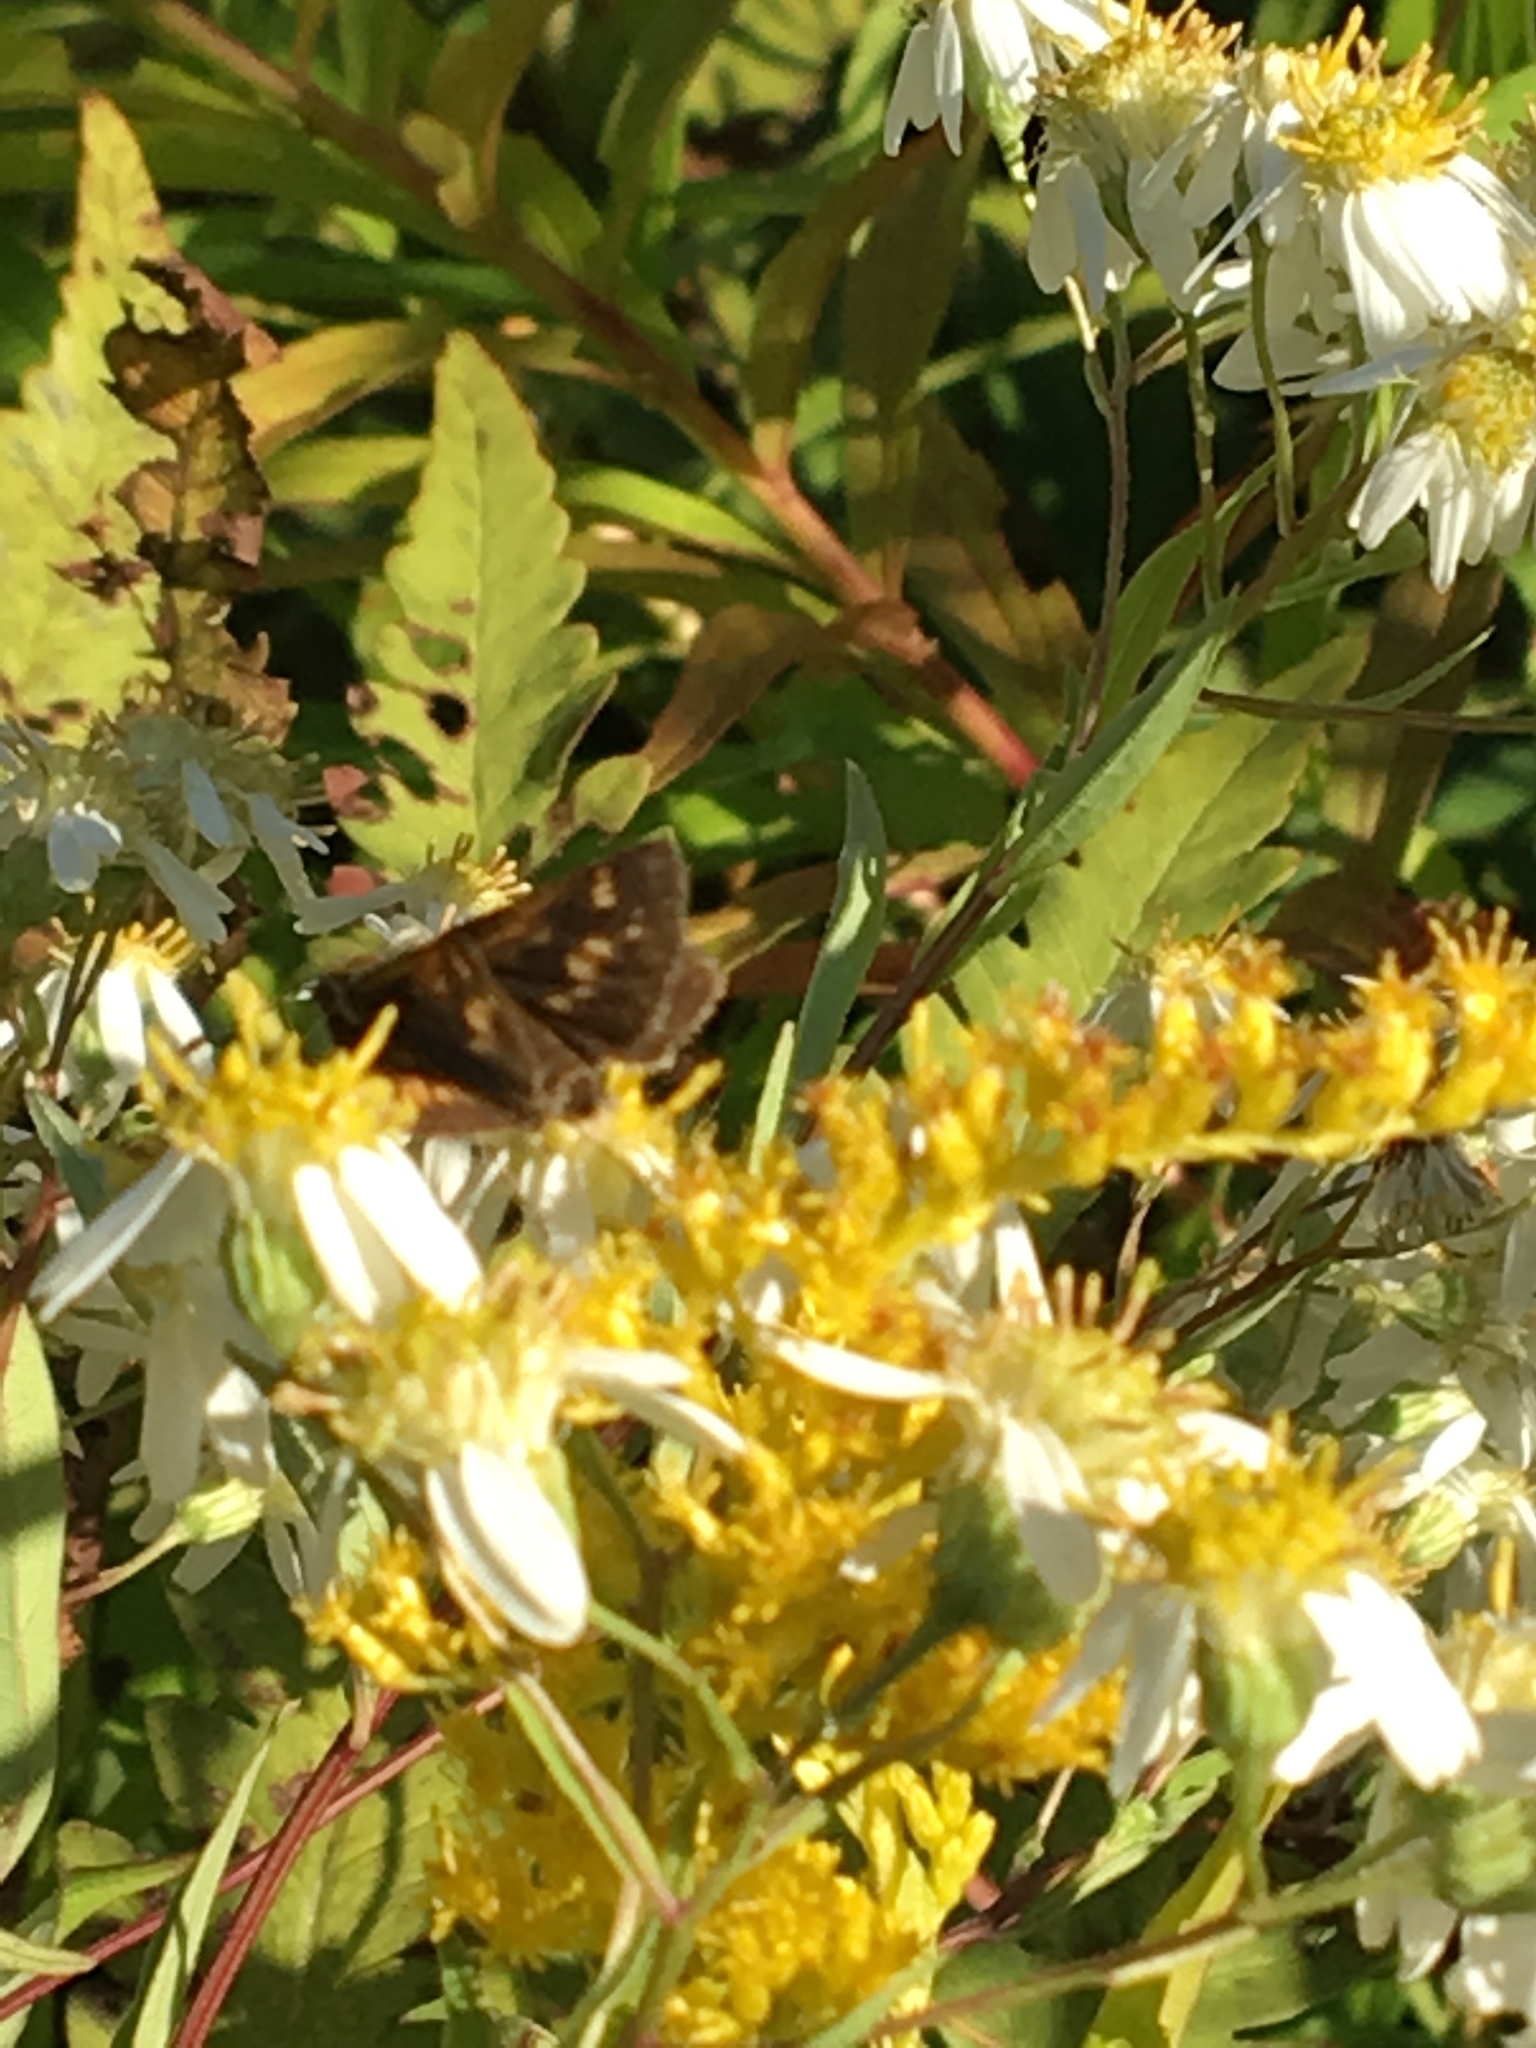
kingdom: Animalia
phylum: Arthropoda
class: Insecta
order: Lepidoptera
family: Hesperiidae
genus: Polites
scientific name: Polites coras
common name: Peck's skipper
